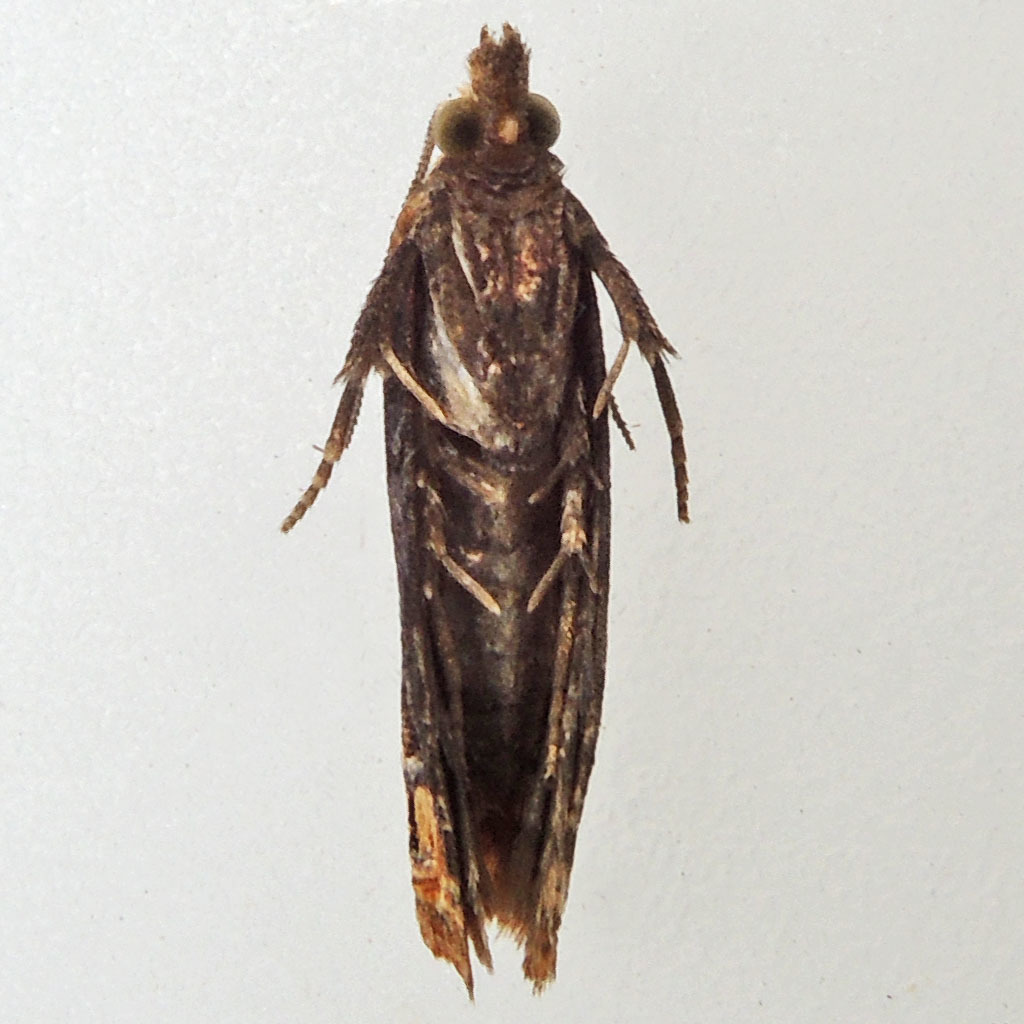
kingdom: Animalia
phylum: Arthropoda
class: Insecta
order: Lepidoptera
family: Tortricidae
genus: Eucosma
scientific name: Eucosma ochroterminana
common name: Buff-tipped eucosma moth
